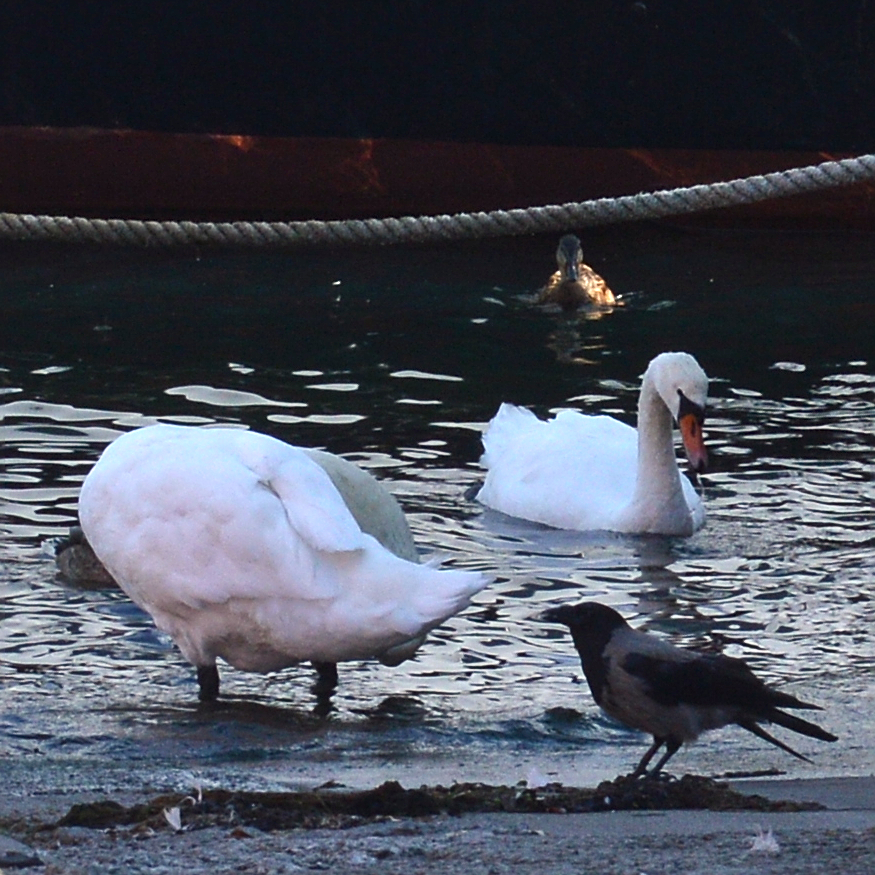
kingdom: Animalia
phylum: Chordata
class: Aves
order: Anseriformes
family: Anatidae
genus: Cygnus
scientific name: Cygnus olor
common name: Mute swan
